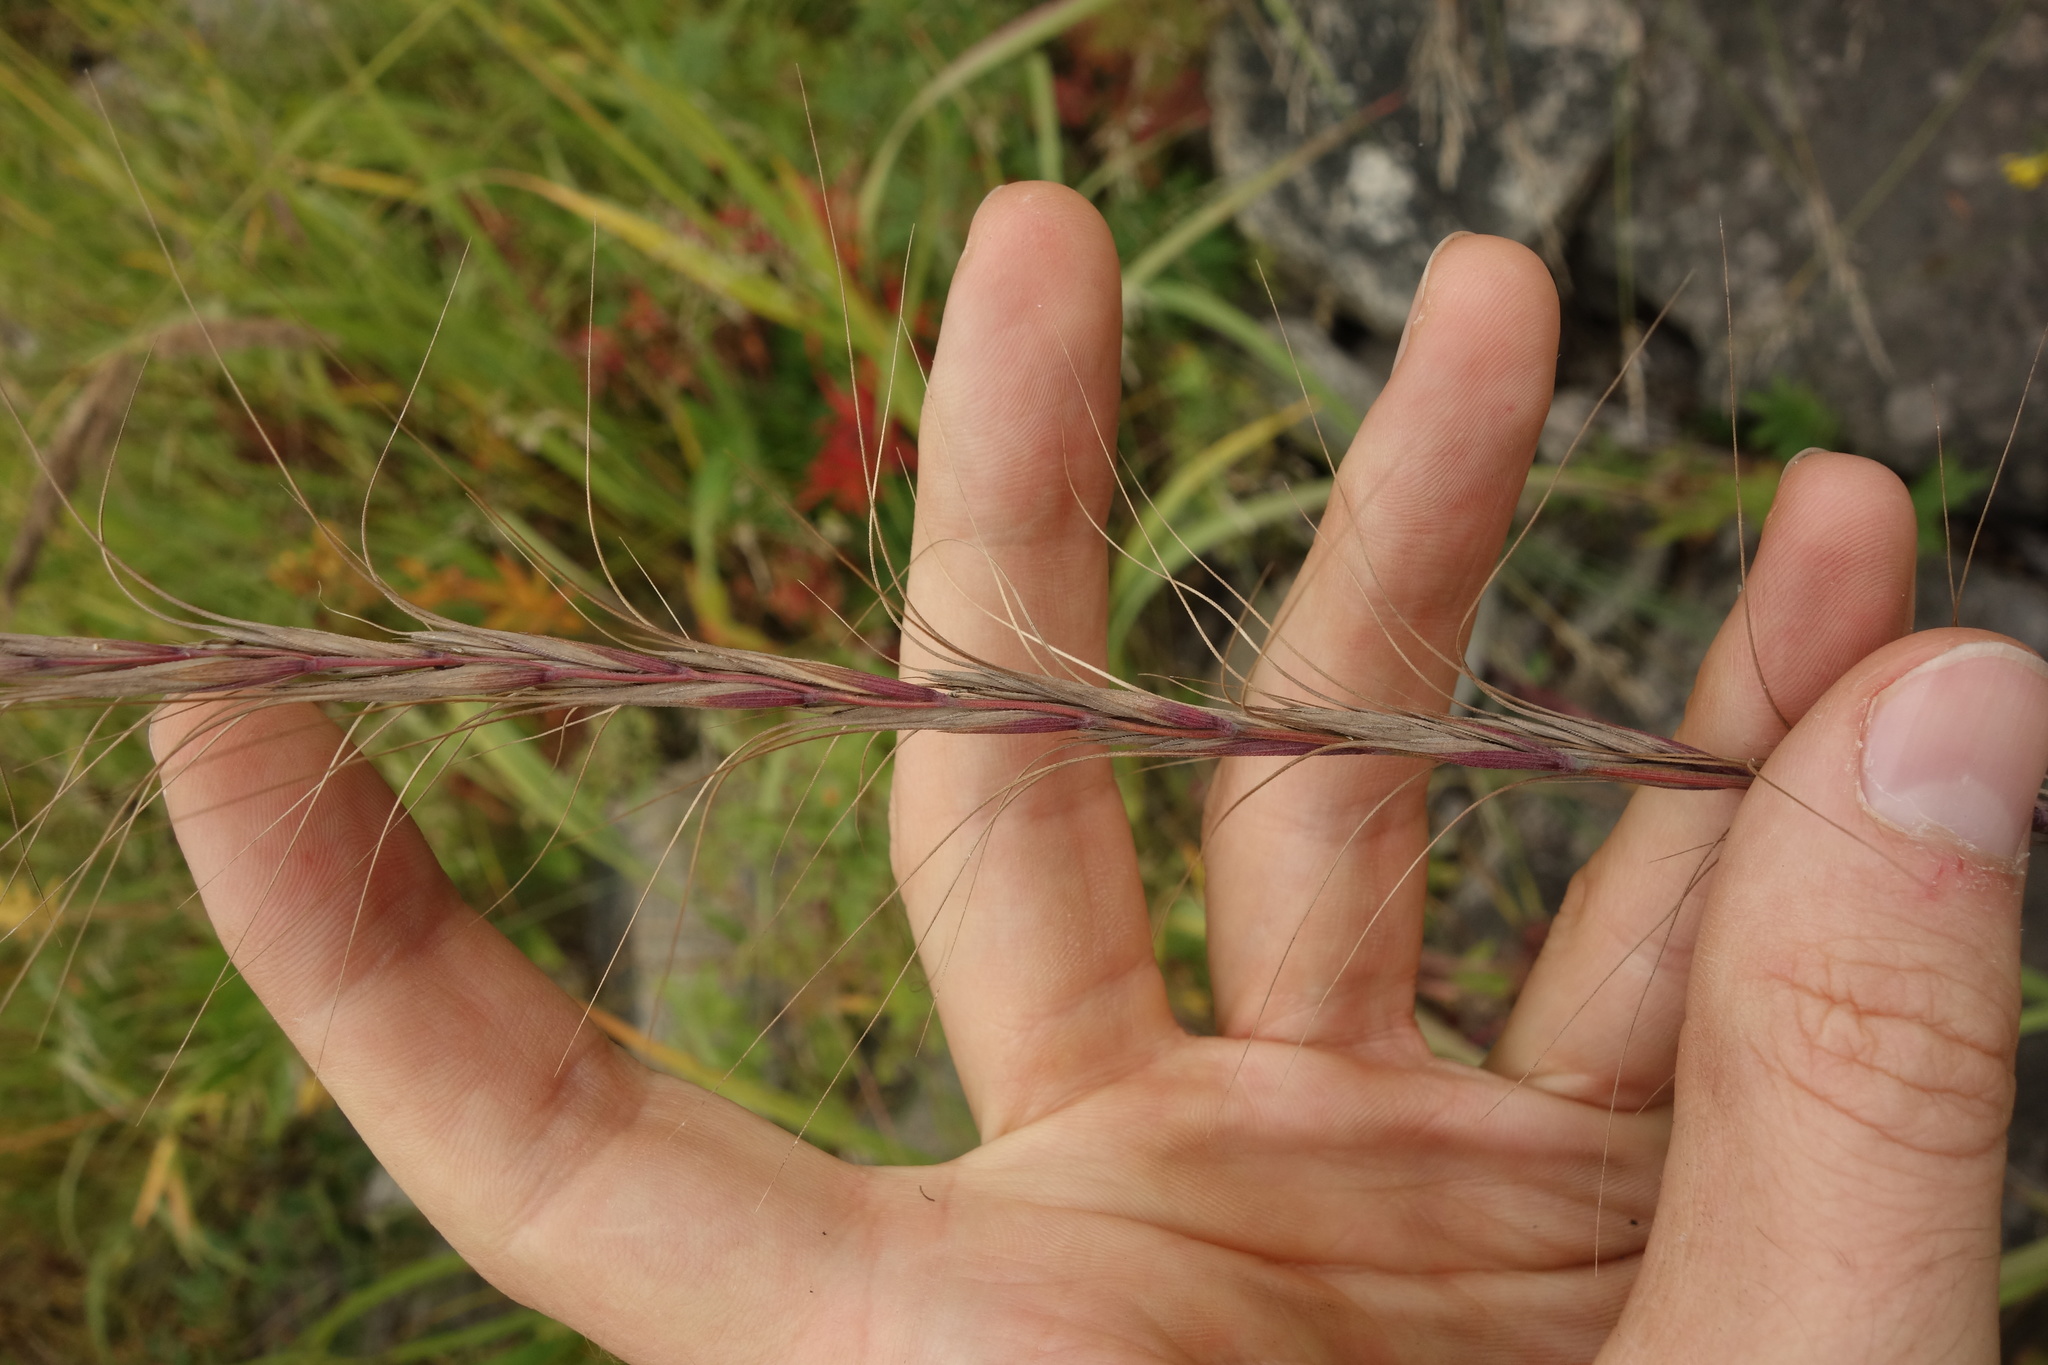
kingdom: Plantae
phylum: Tracheophyta
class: Liliopsida
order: Poales
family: Poaceae
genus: Elymus
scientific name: Elymus gmelinii
